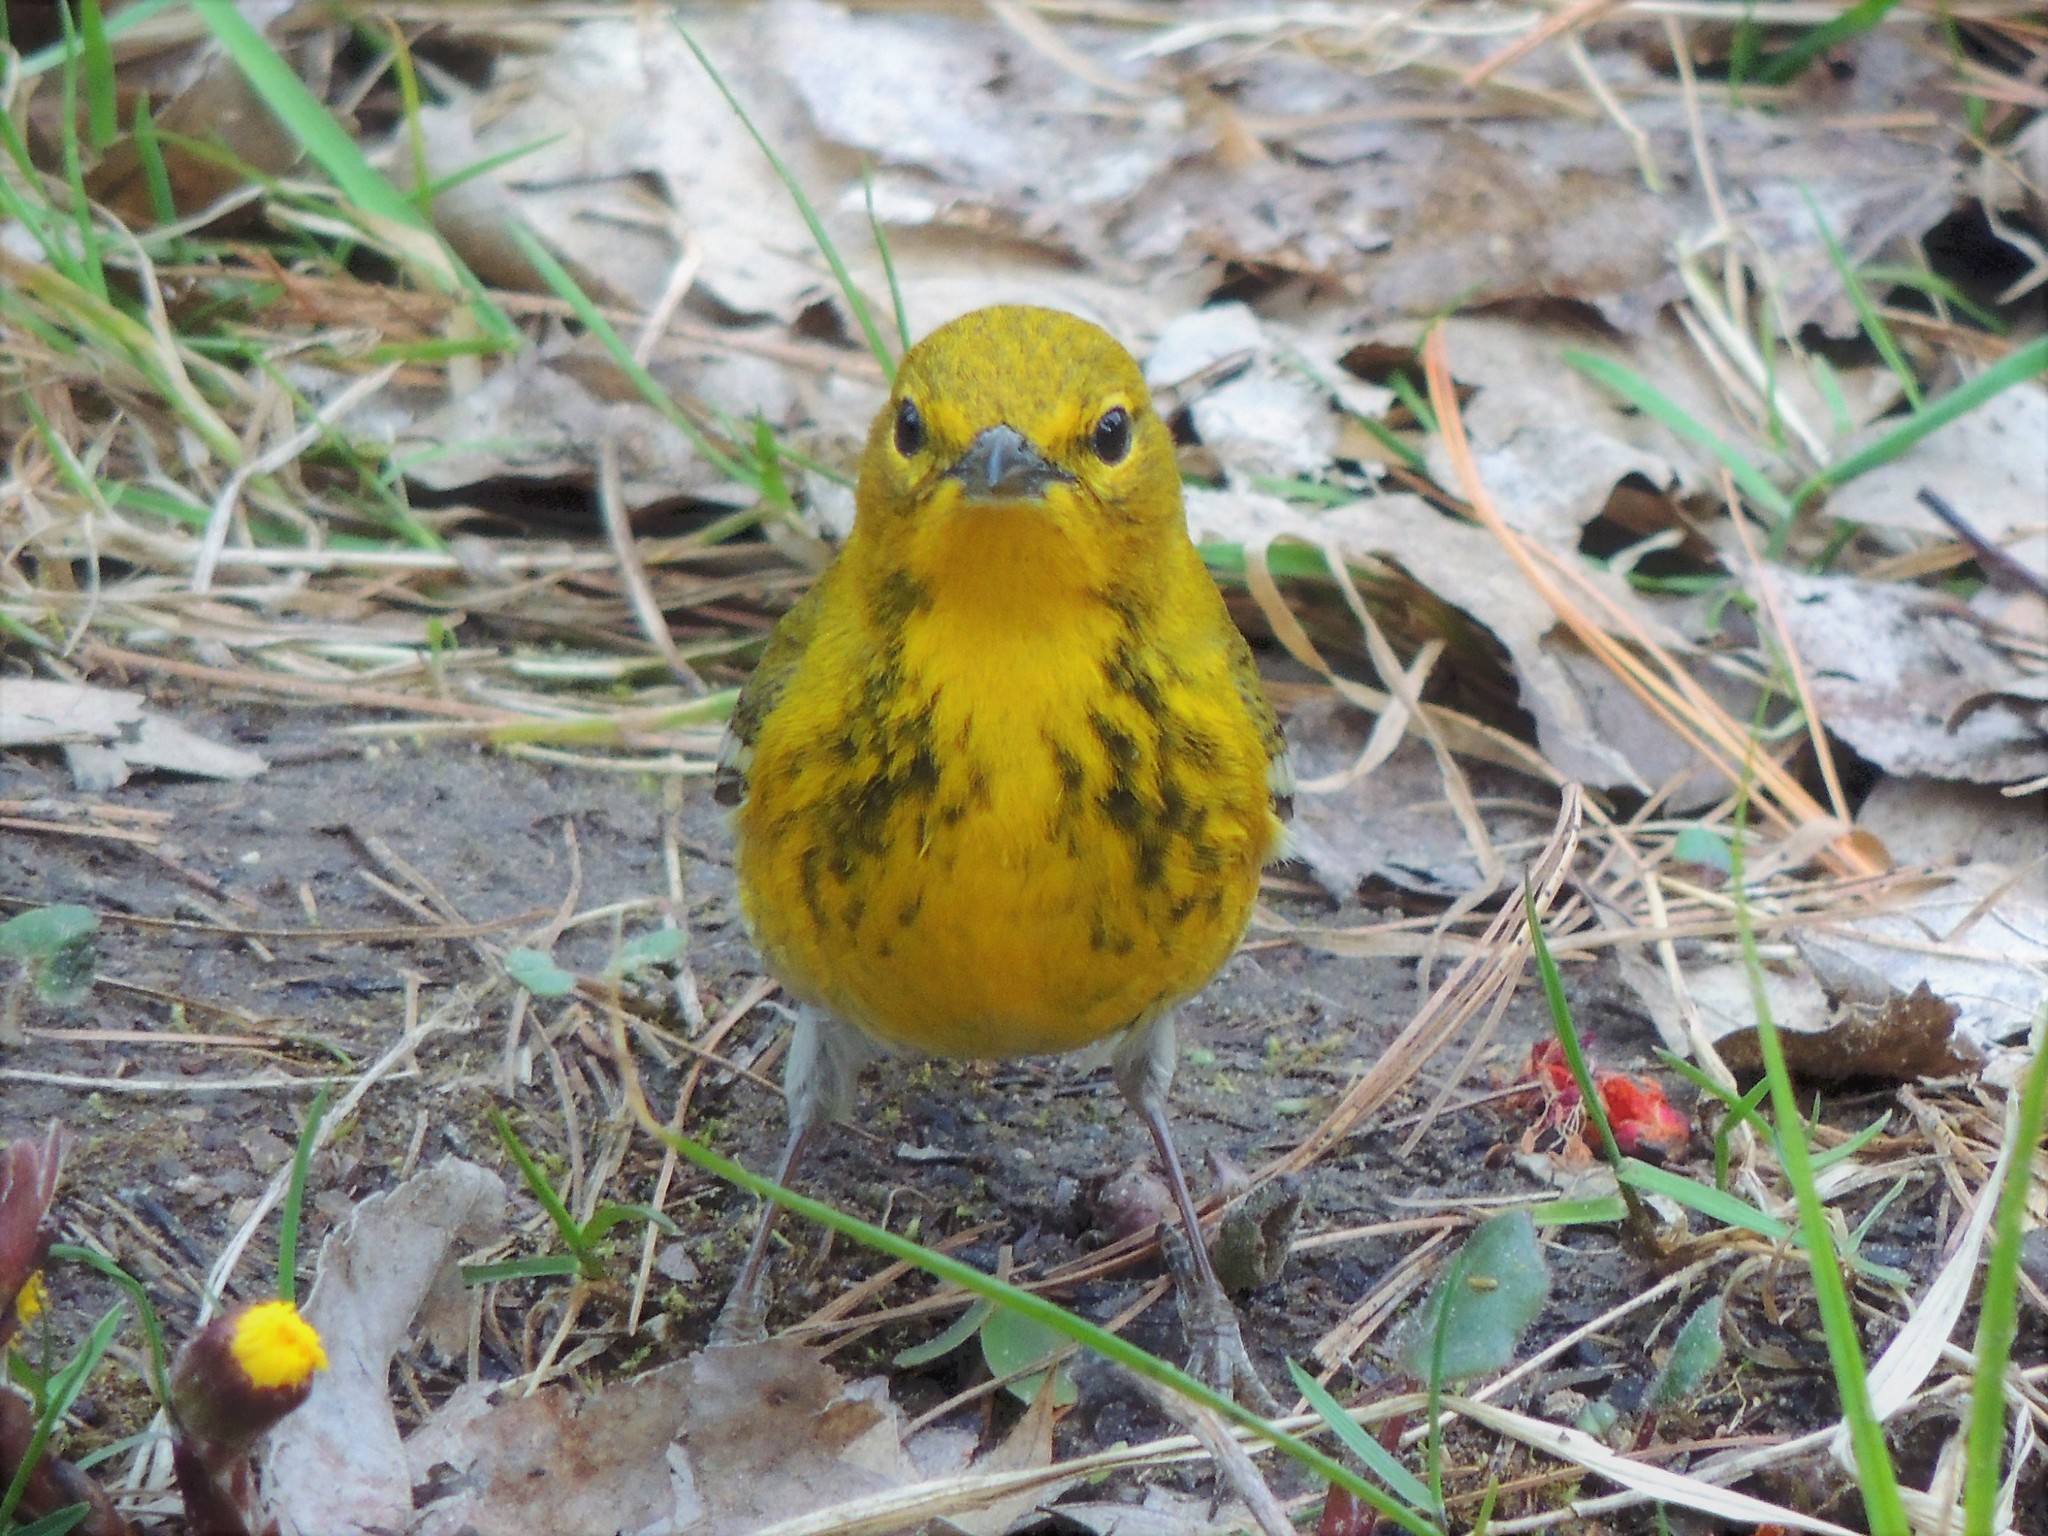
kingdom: Animalia
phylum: Chordata
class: Aves
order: Passeriformes
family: Parulidae
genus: Setophaga
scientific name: Setophaga pinus
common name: Pine warbler
